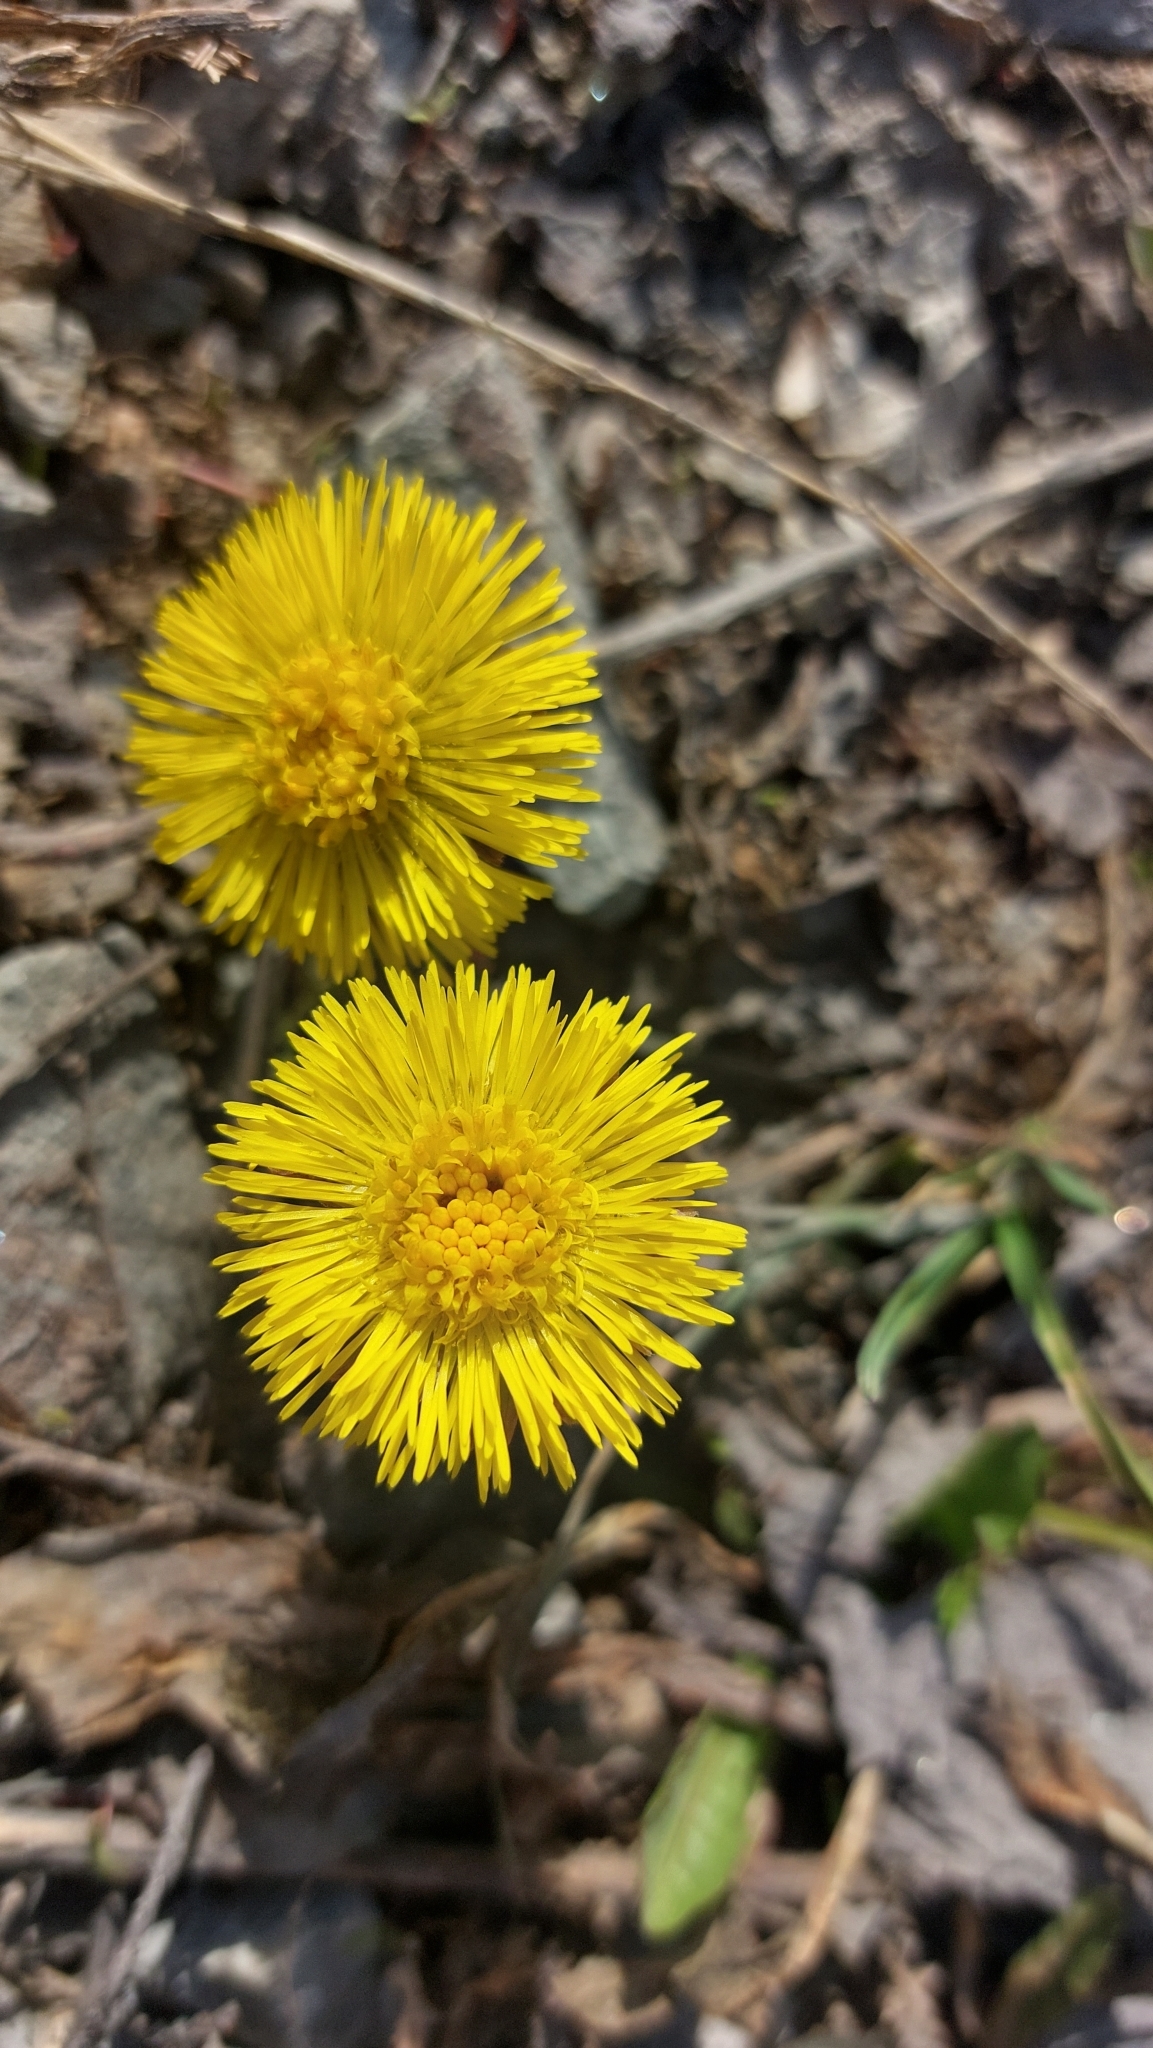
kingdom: Plantae
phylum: Tracheophyta
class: Magnoliopsida
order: Asterales
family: Asteraceae
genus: Tussilago
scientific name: Tussilago farfara
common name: Coltsfoot
